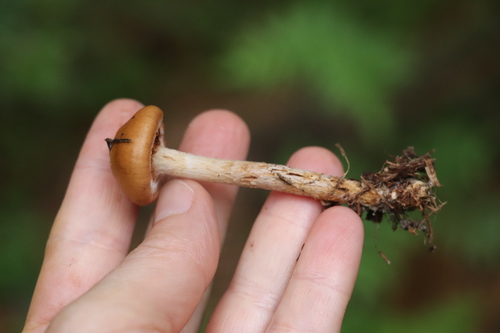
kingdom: Fungi
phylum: Basidiomycota
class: Agaricomycetes
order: Agaricales
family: Cortinariaceae
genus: Cortinarius
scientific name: Cortinarius trivialis
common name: Girdled webcap
